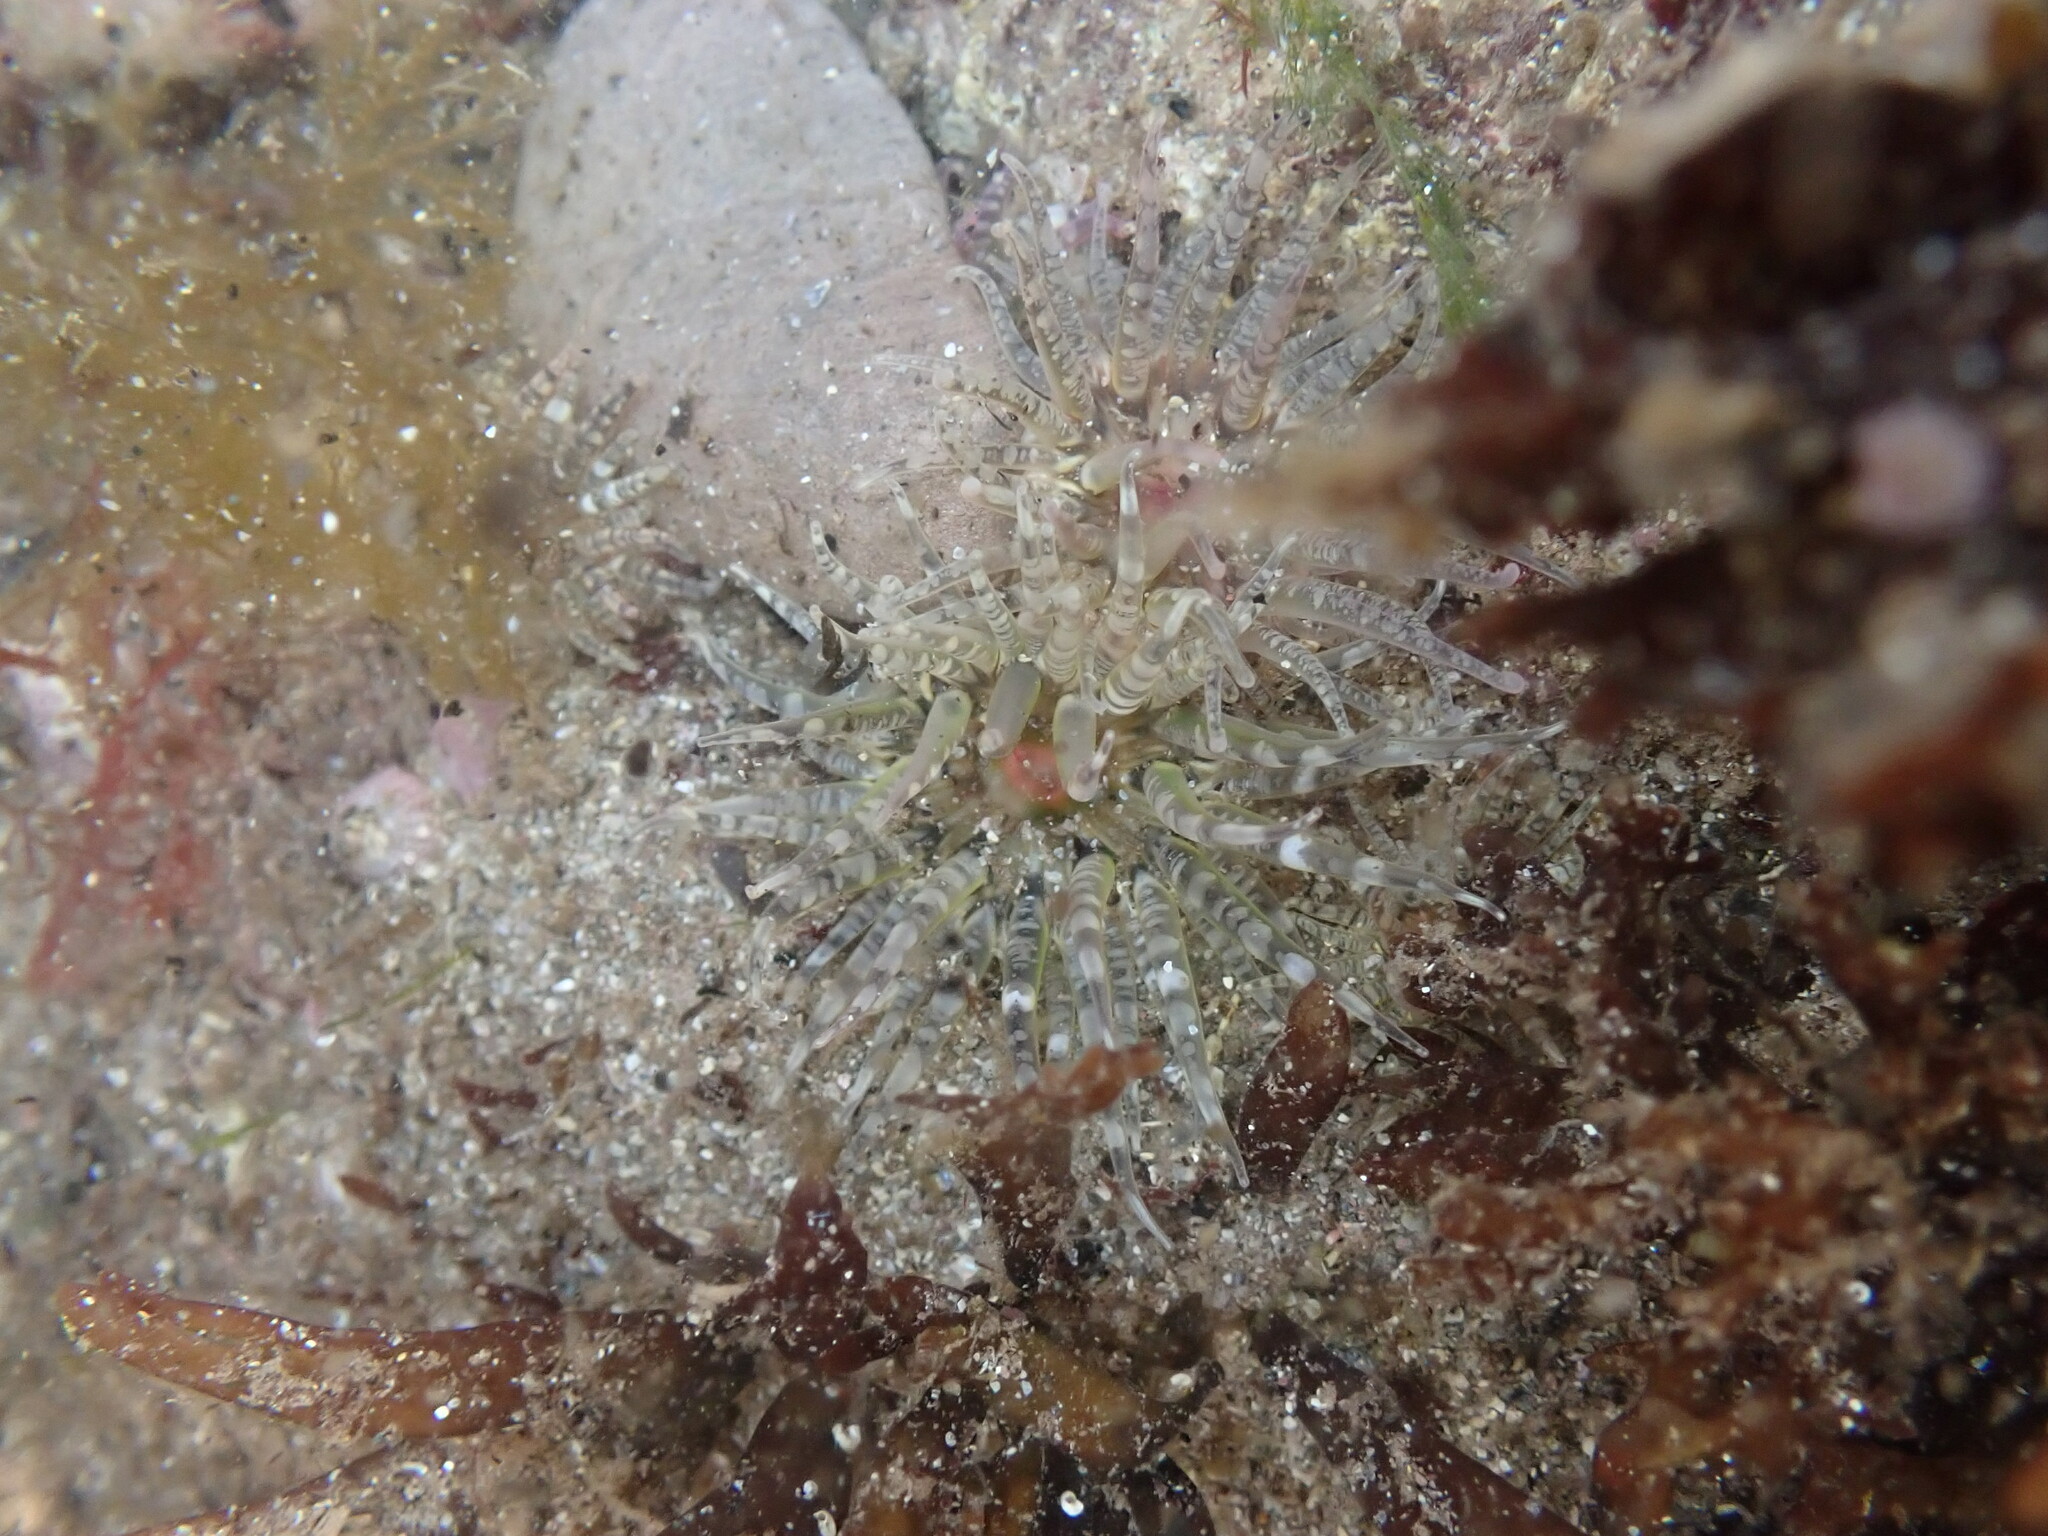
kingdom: Animalia
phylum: Cnidaria
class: Anthozoa
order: Actiniaria
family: Actiniidae
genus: Bunodactis
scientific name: Bunodactis verrucosa
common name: Gem anemone
